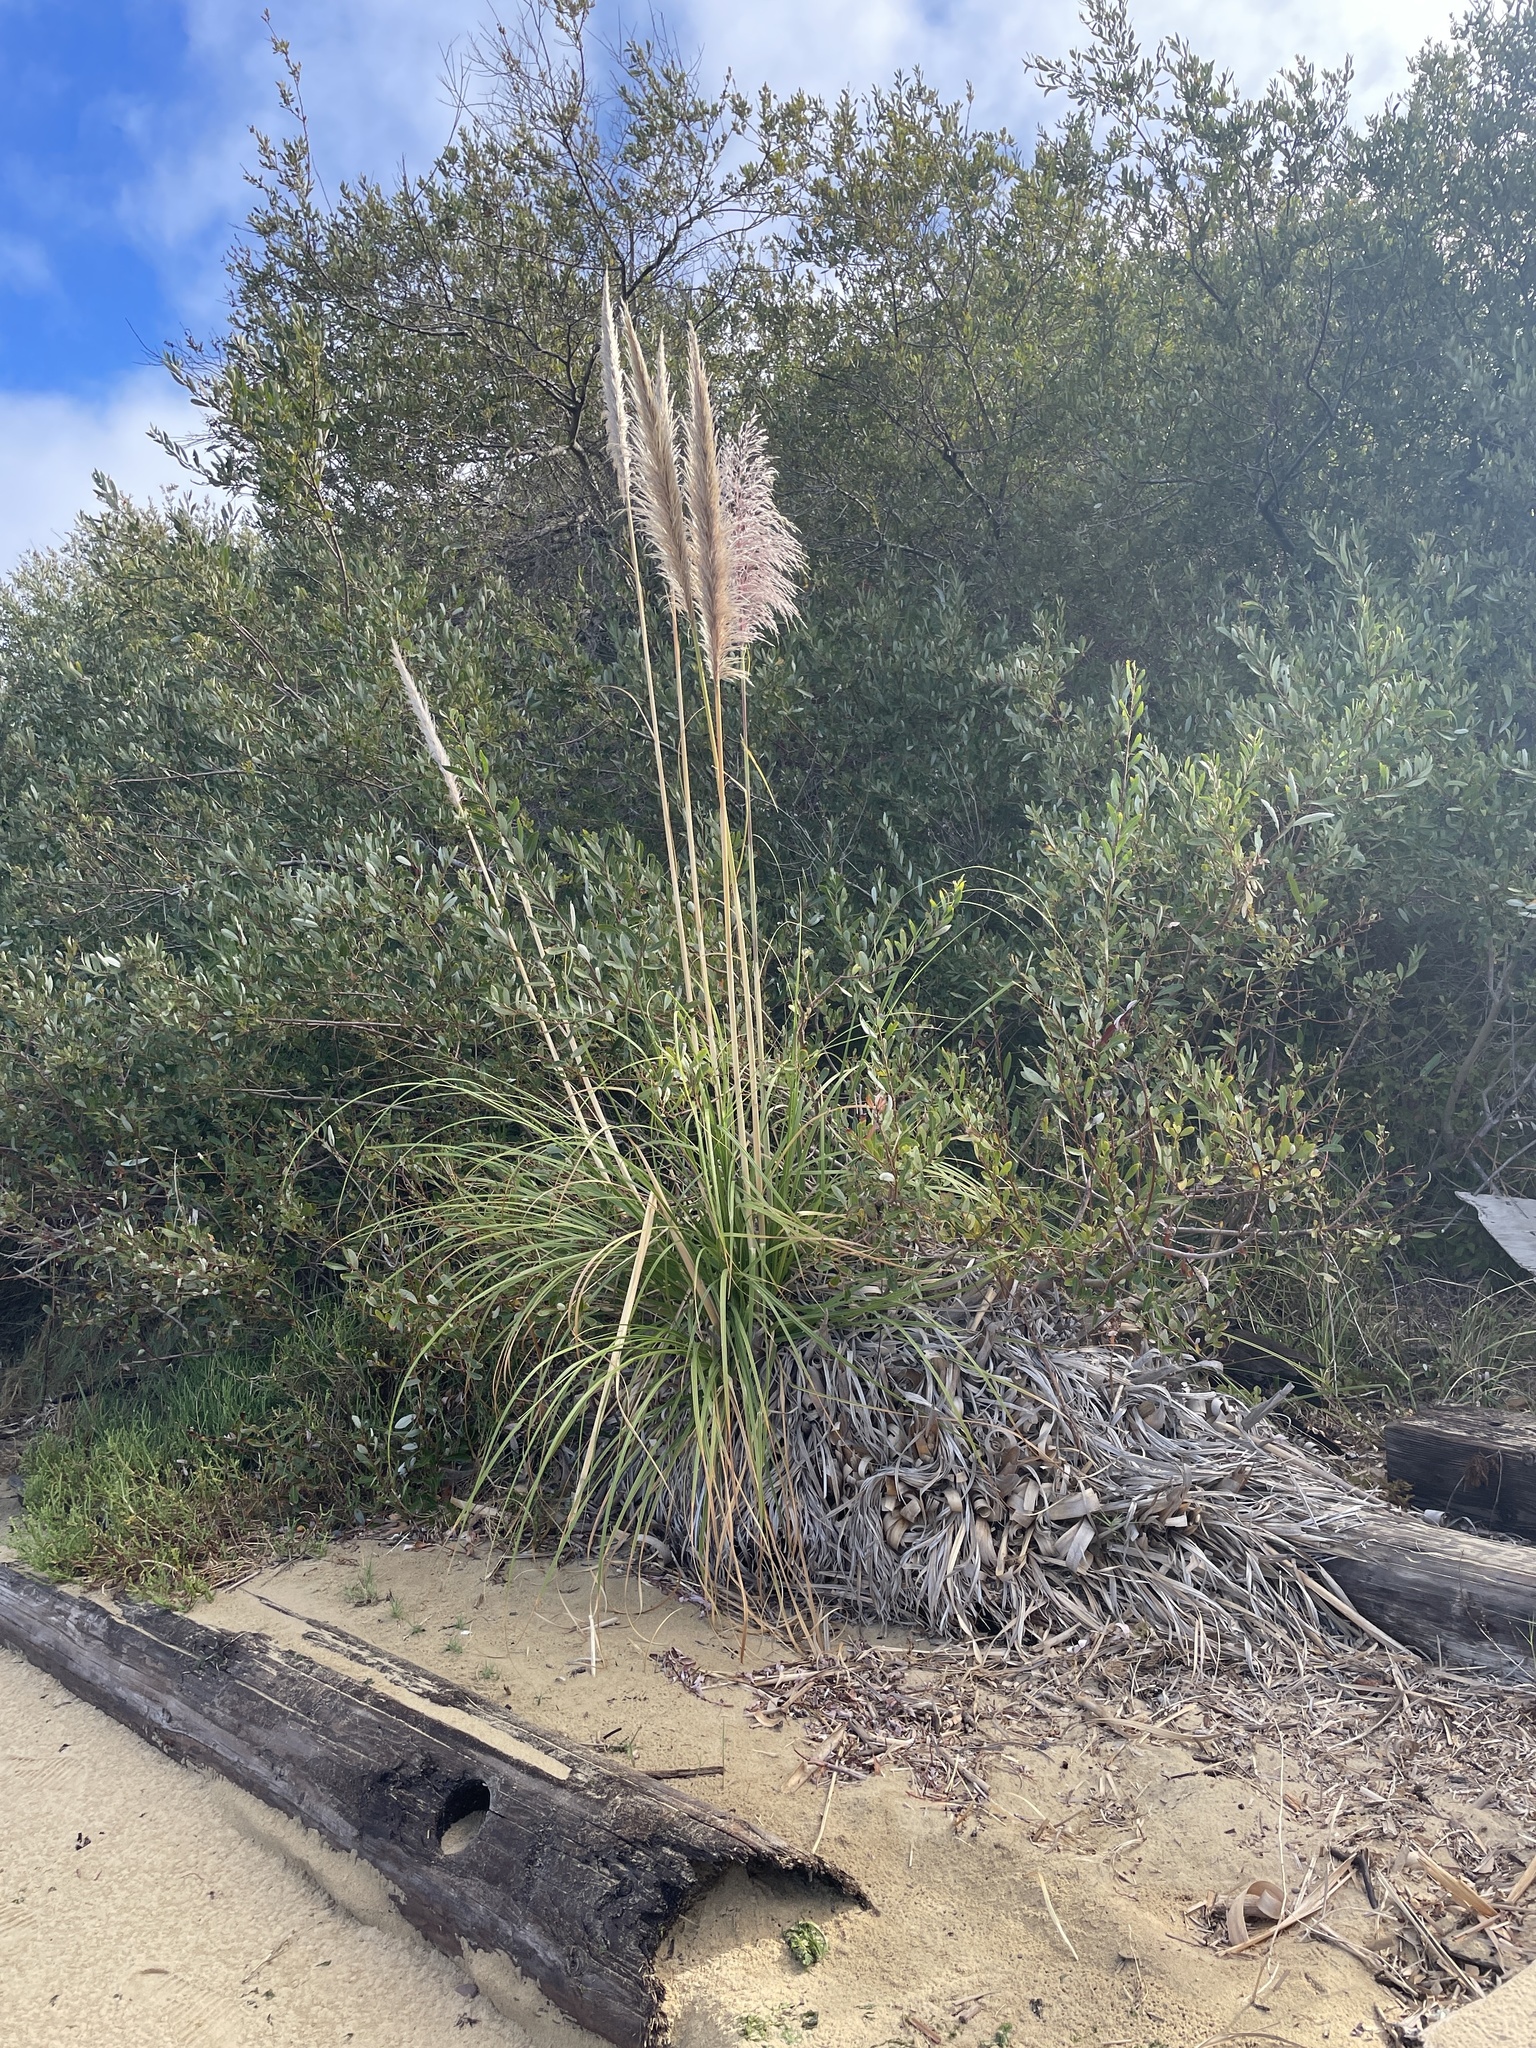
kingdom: Plantae
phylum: Tracheophyta
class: Liliopsida
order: Poales
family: Poaceae
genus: Cortaderia
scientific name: Cortaderia jubata
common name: Purple pampas grass
